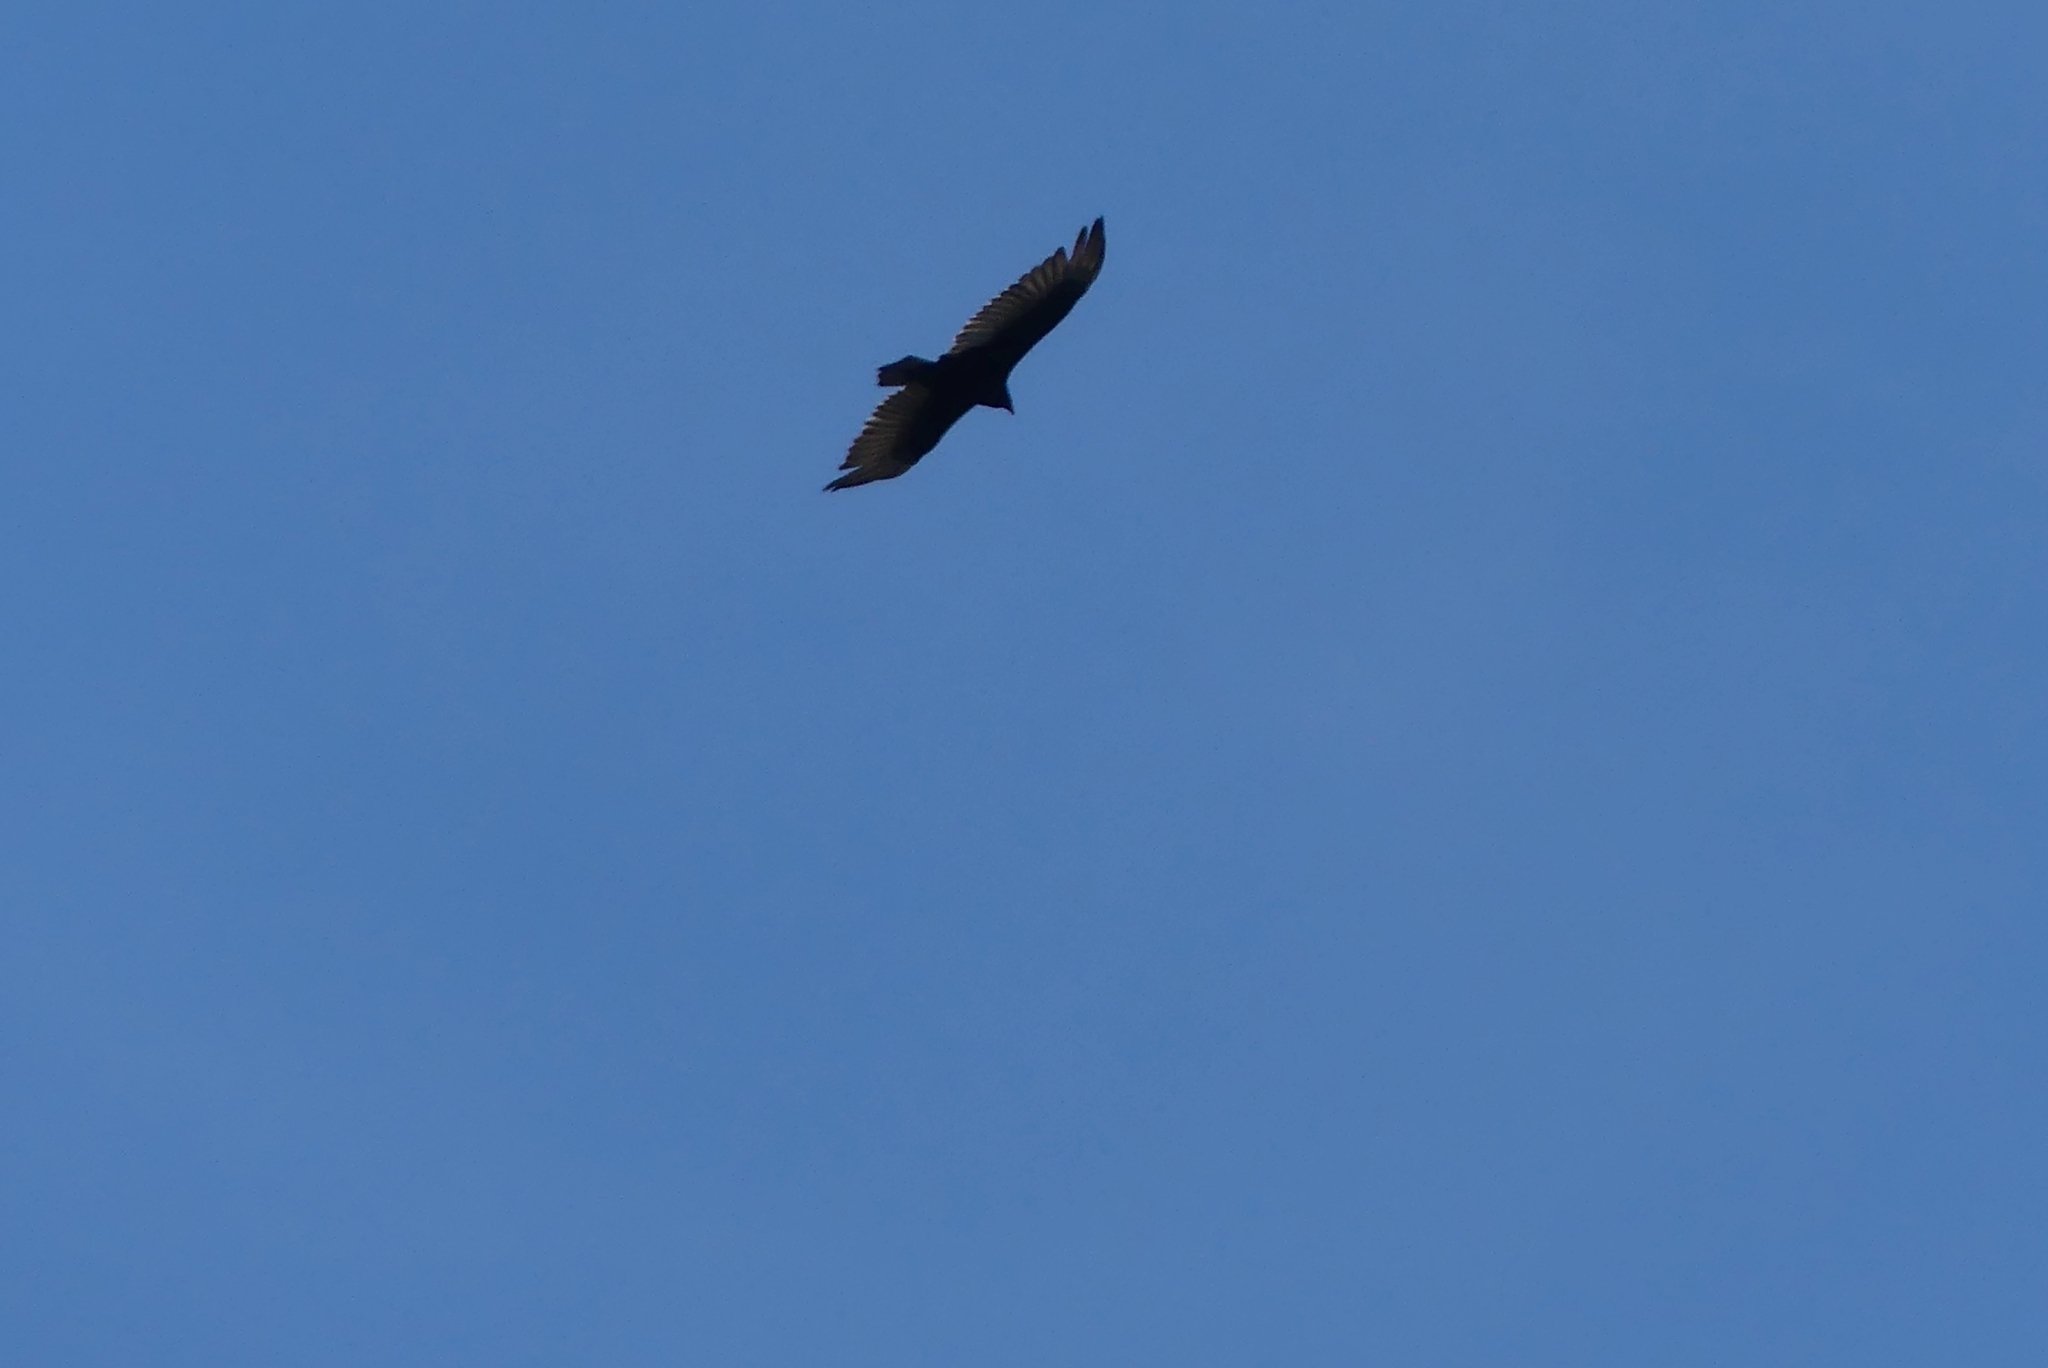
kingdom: Animalia
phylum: Chordata
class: Aves
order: Accipitriformes
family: Cathartidae
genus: Cathartes
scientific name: Cathartes aura
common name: Turkey vulture
